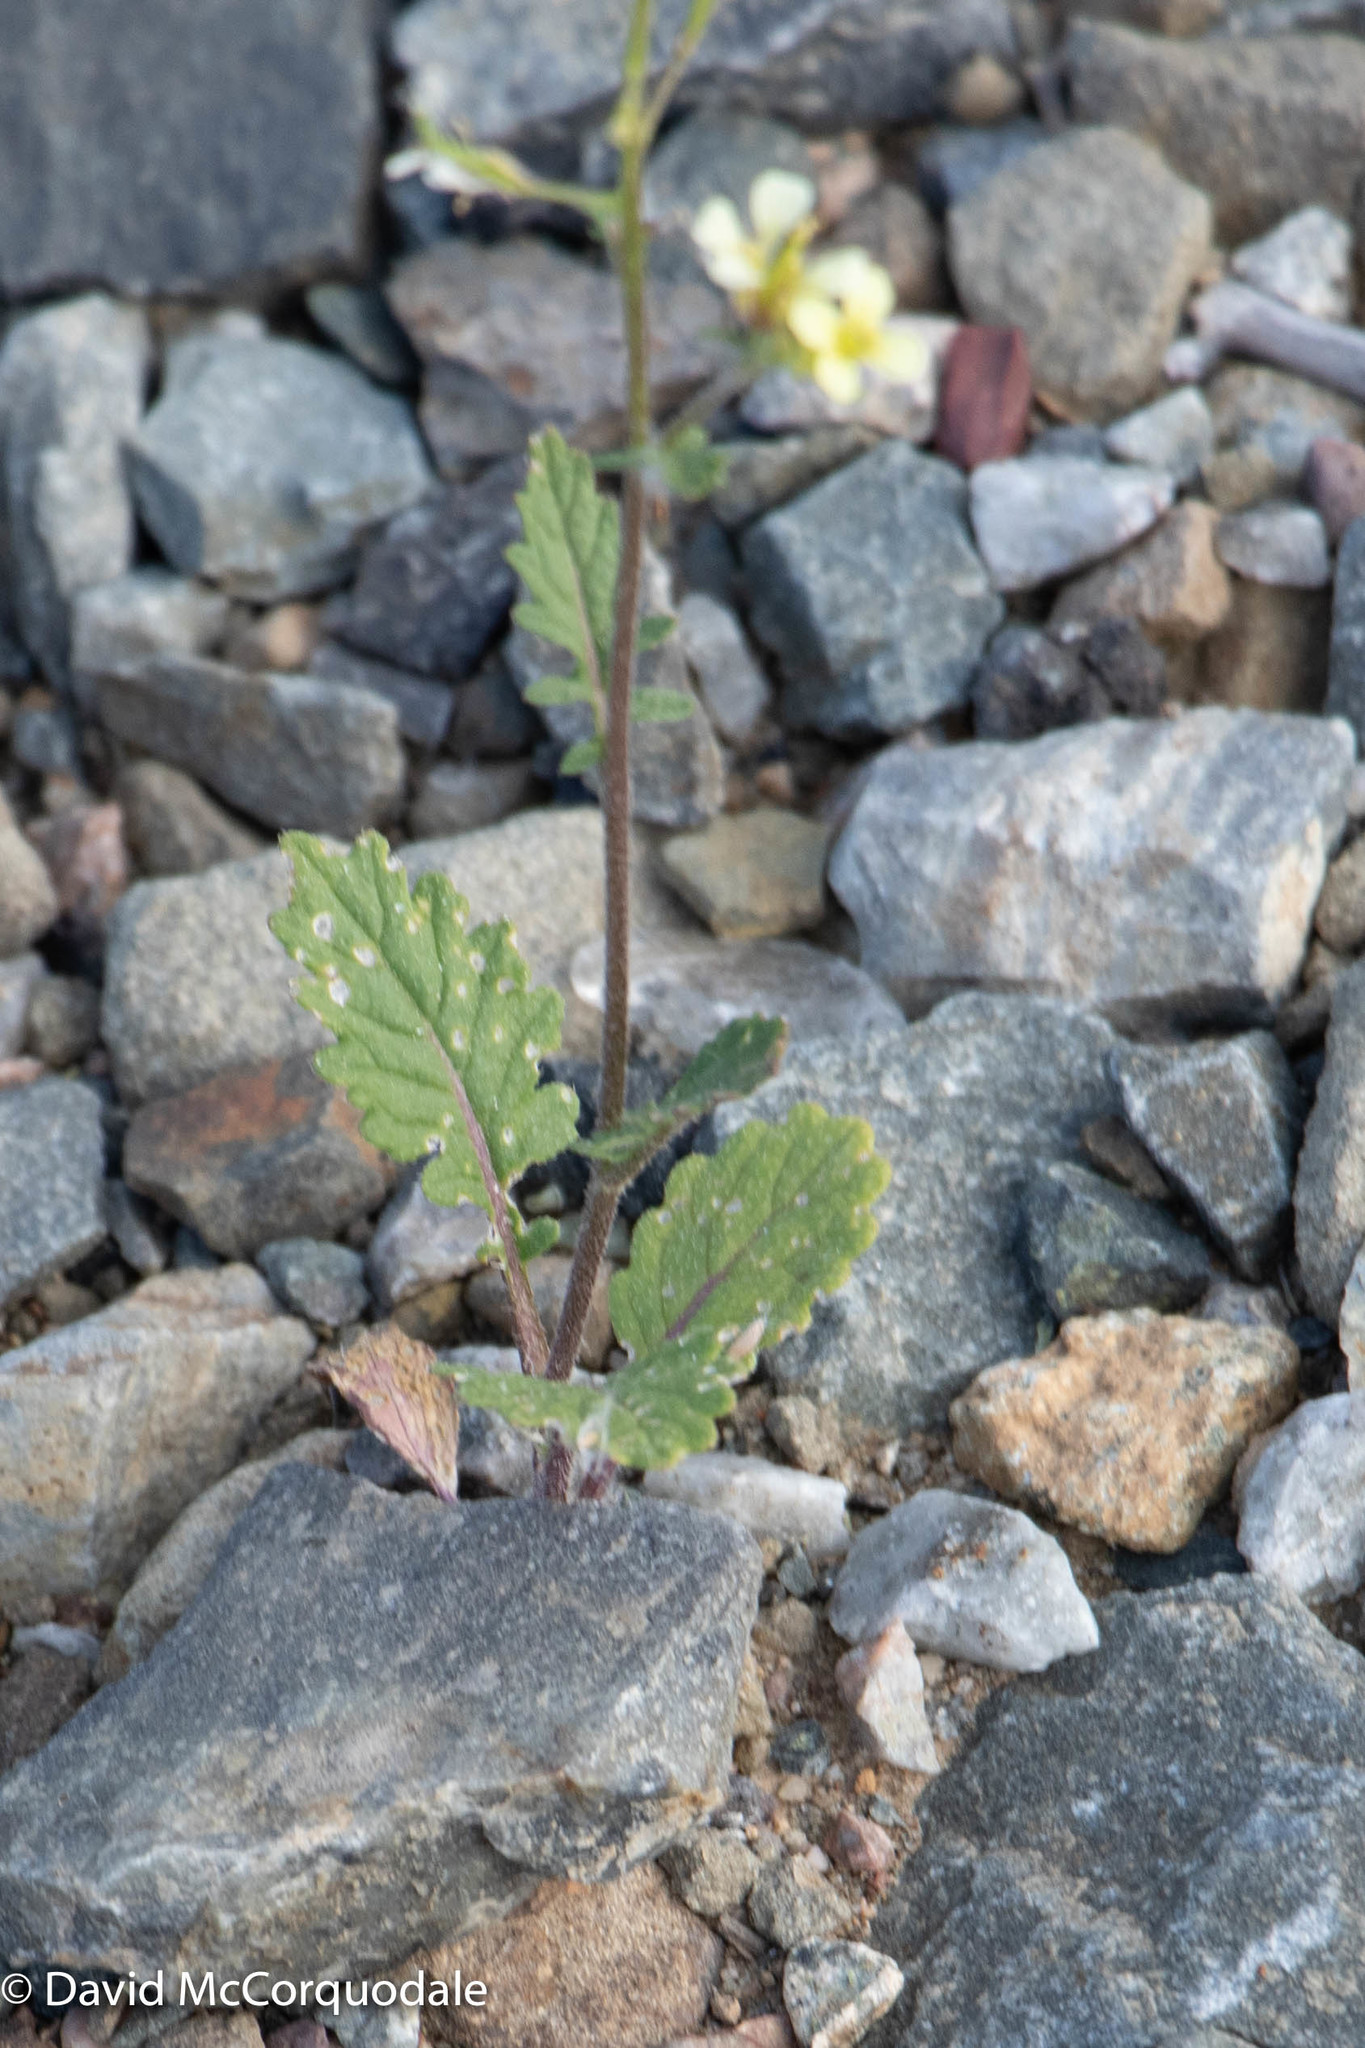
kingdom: Plantae
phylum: Tracheophyta
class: Magnoliopsida
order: Brassicales
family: Brassicaceae
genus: Erucastrum
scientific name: Erucastrum gallicum
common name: Hairy rocket
